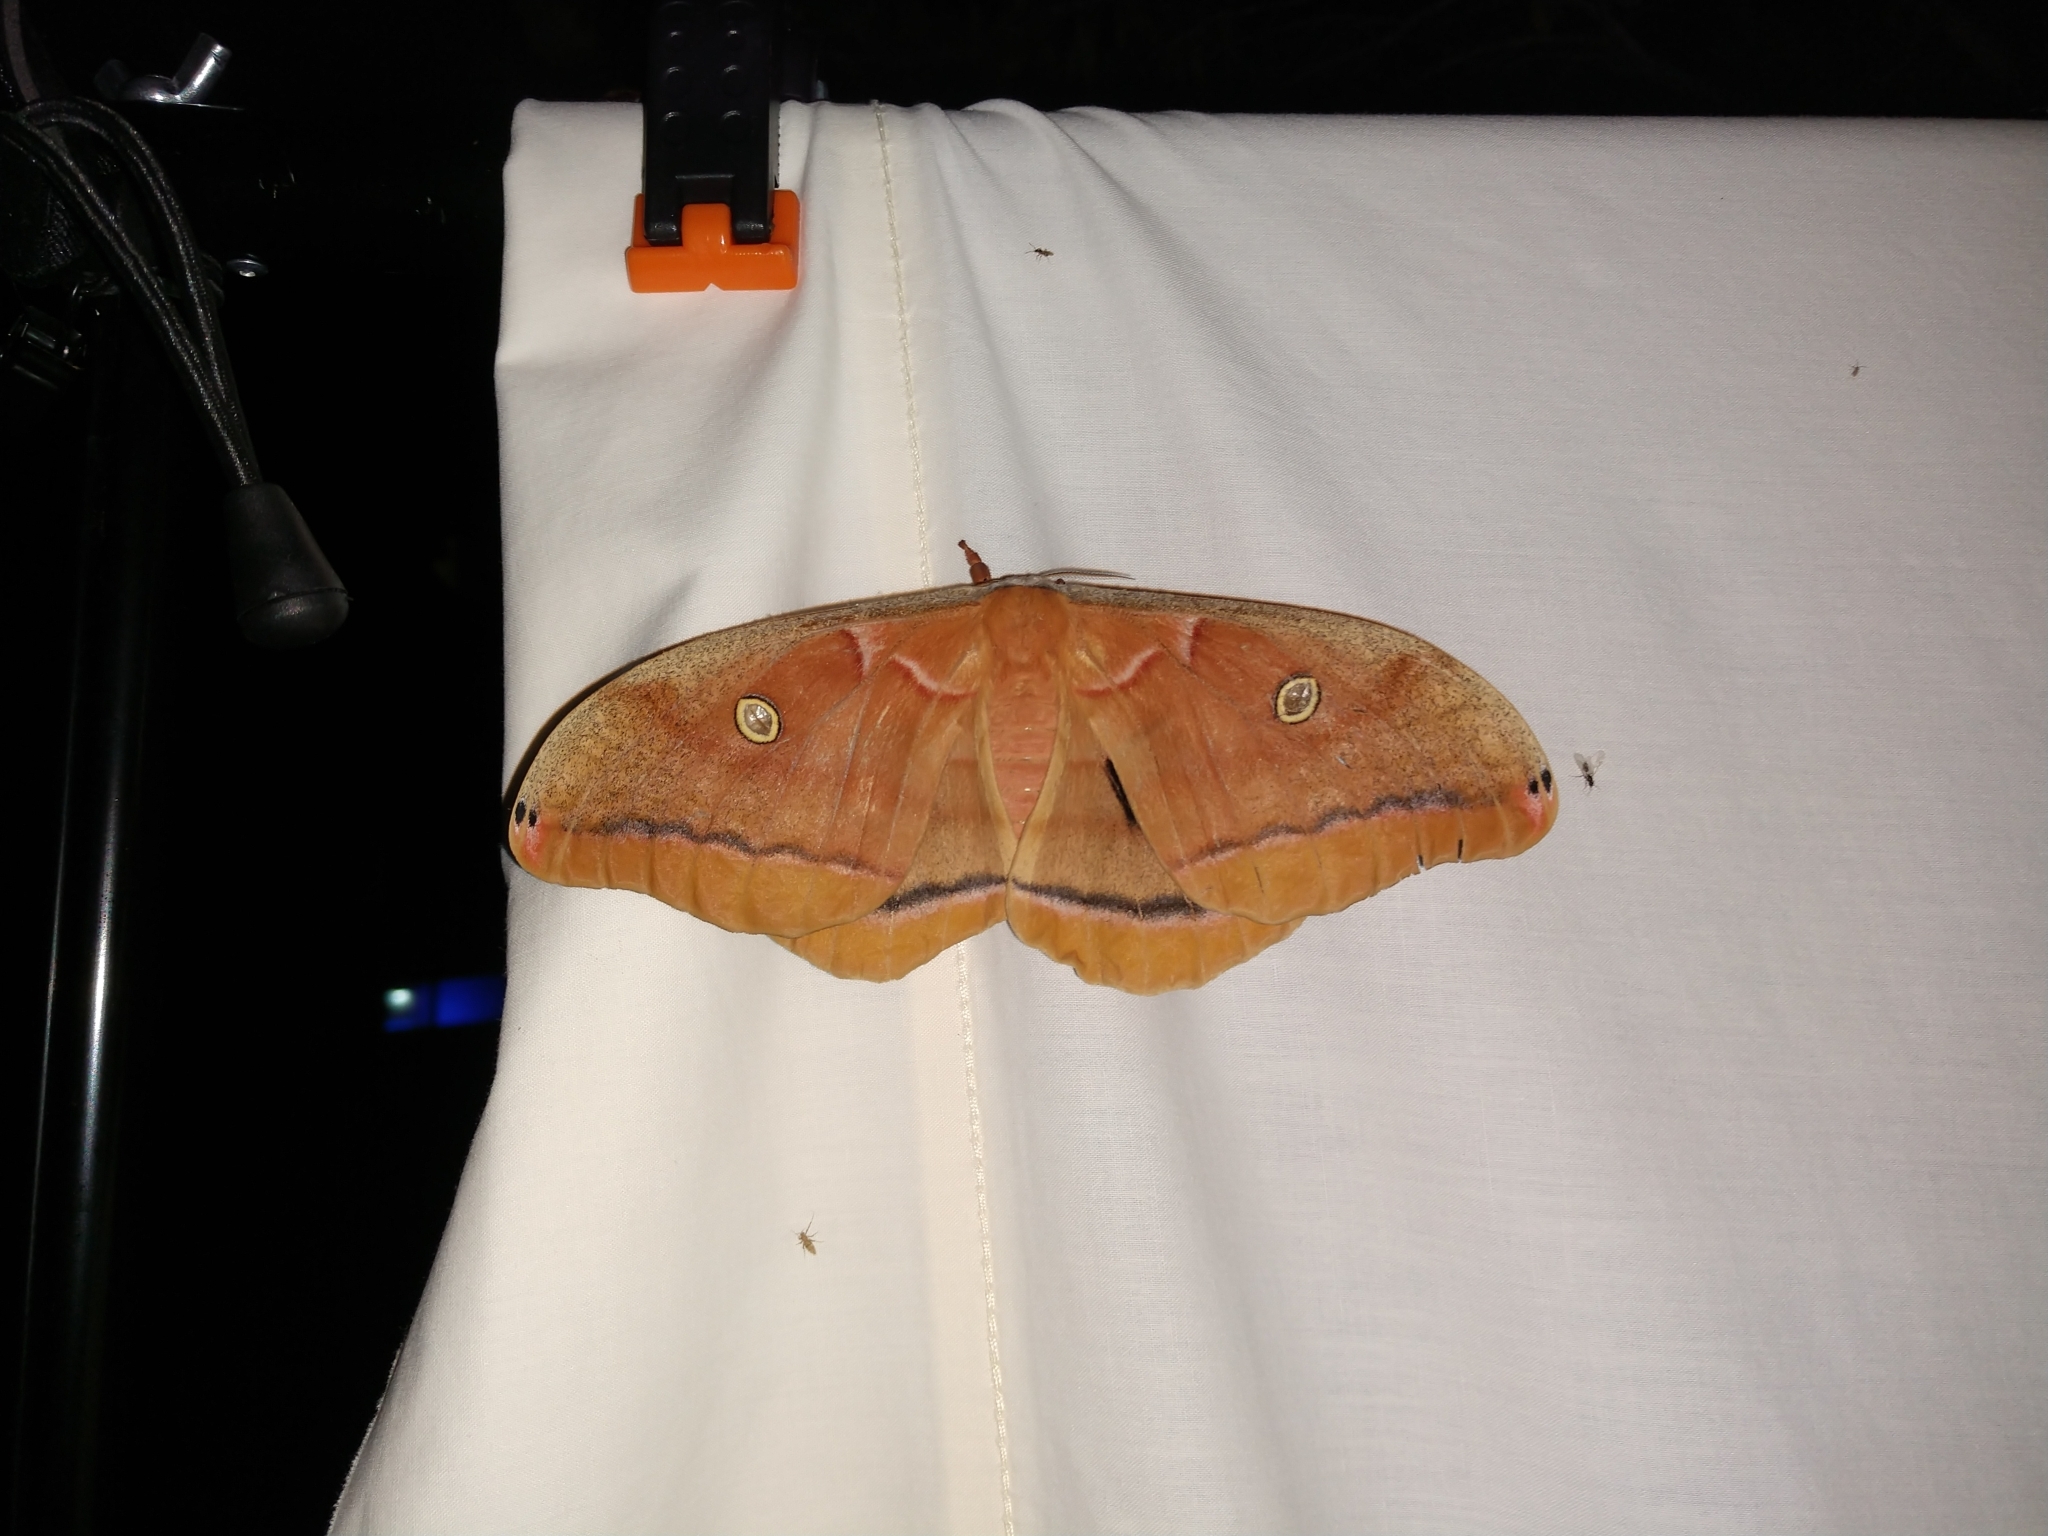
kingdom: Animalia
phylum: Arthropoda
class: Insecta
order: Lepidoptera
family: Saturniidae
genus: Antheraea
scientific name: Antheraea polyphemus
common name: Polyphemus moth
